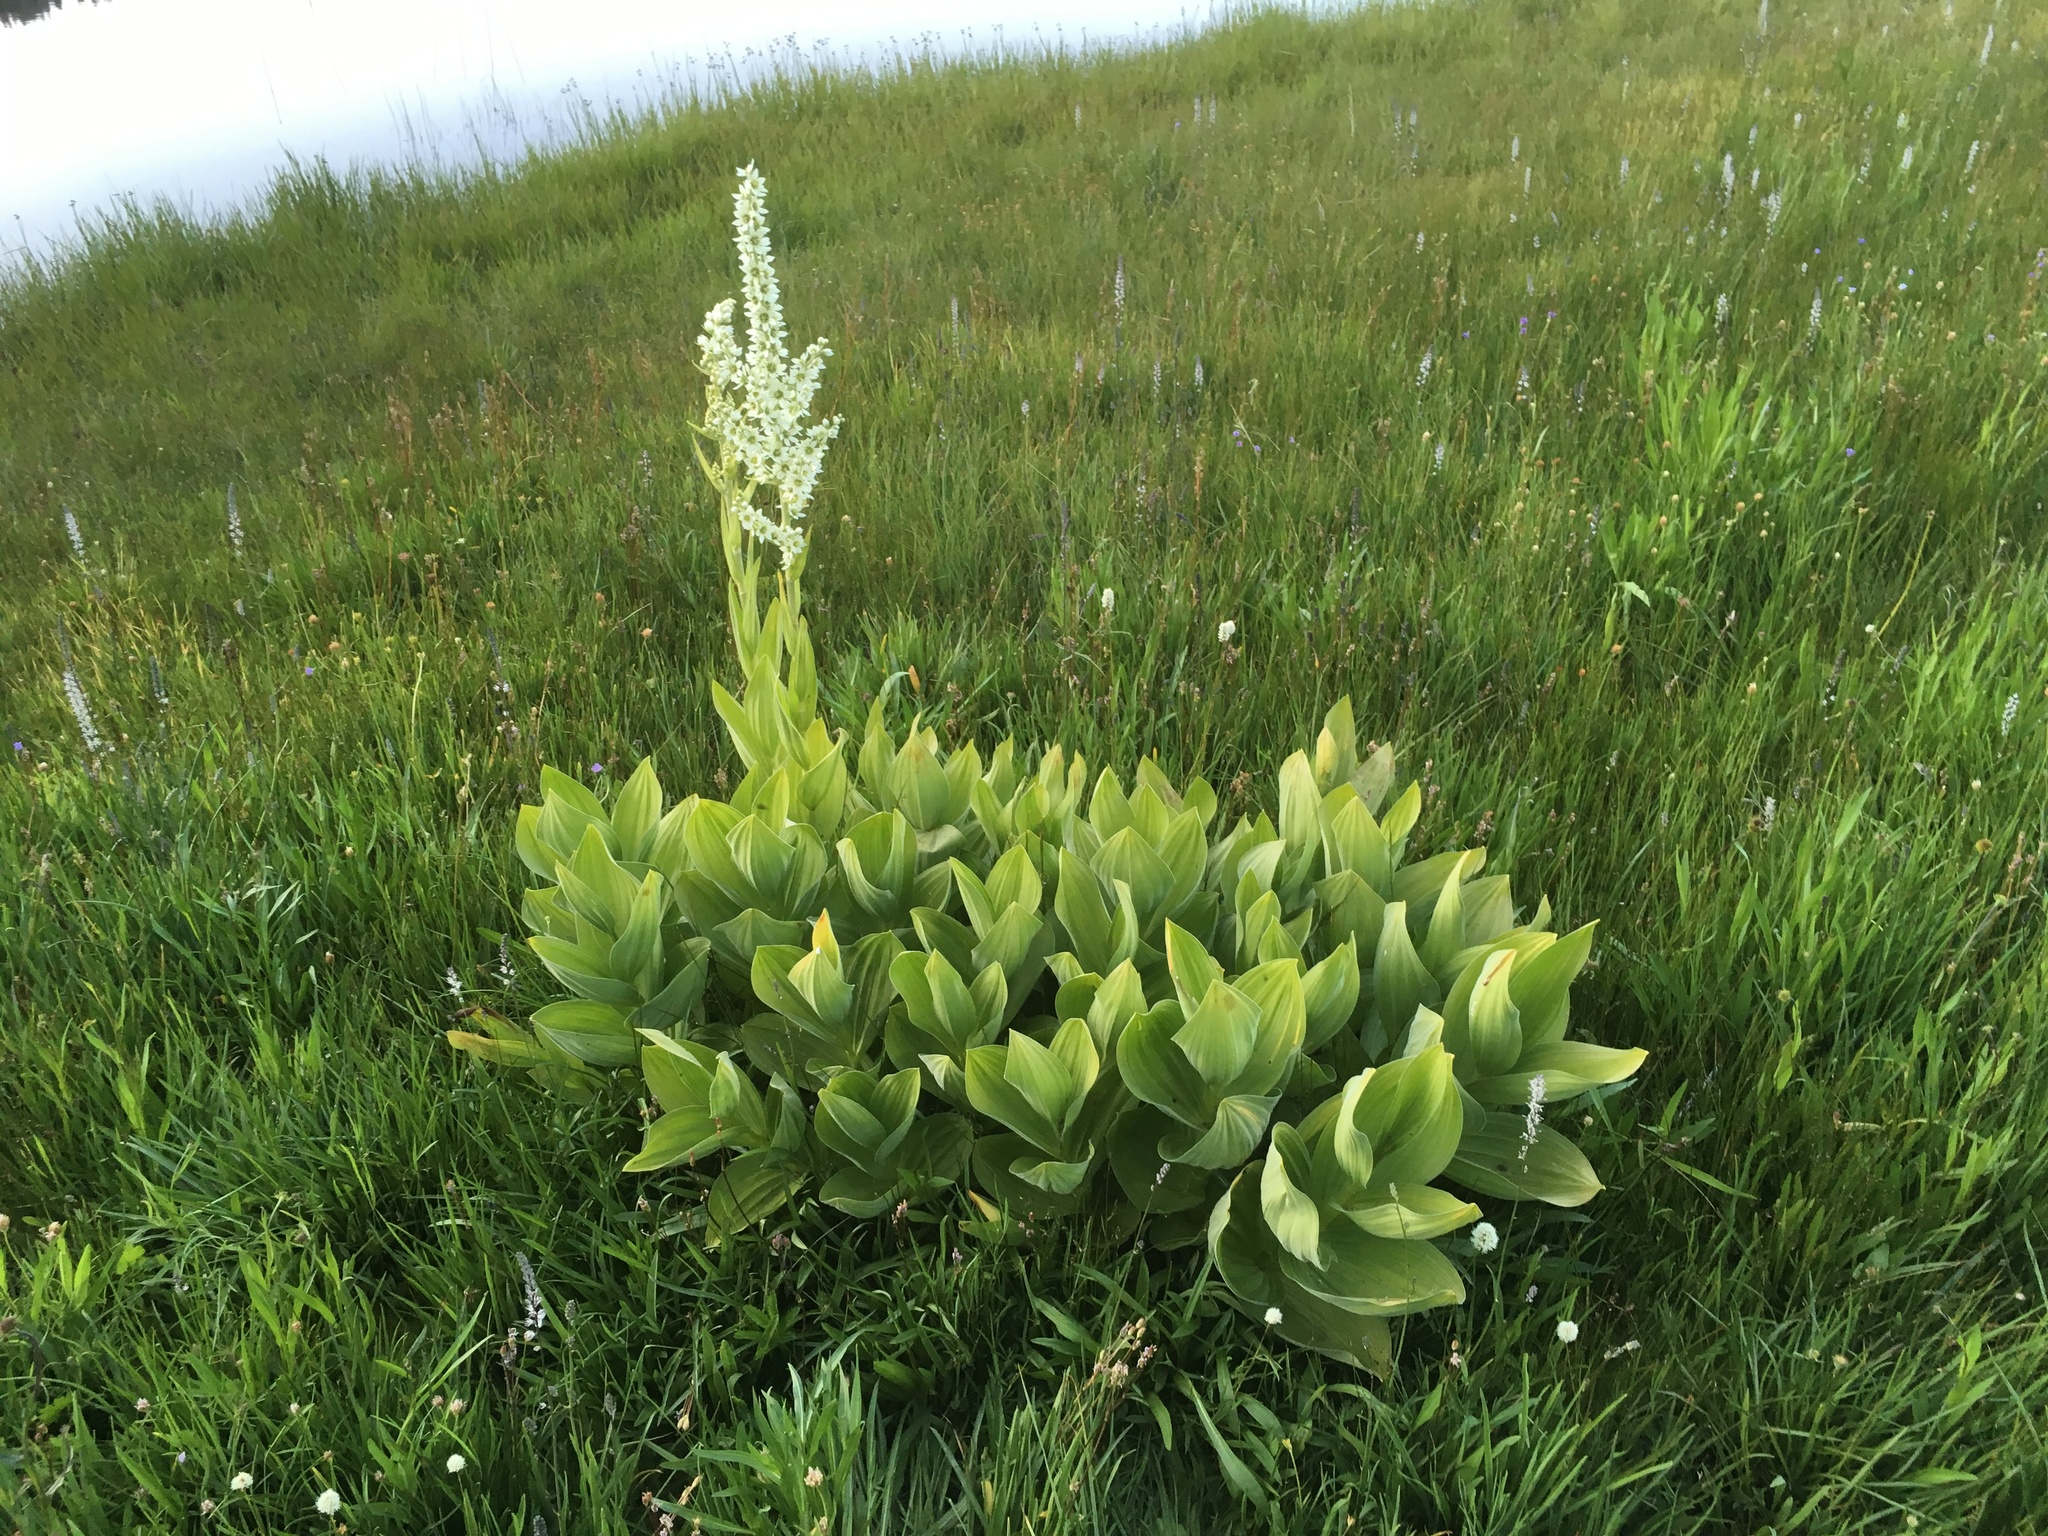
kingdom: Plantae
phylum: Tracheophyta
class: Liliopsida
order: Liliales
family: Melanthiaceae
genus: Veratrum
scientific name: Veratrum californicum
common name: California veratrum
